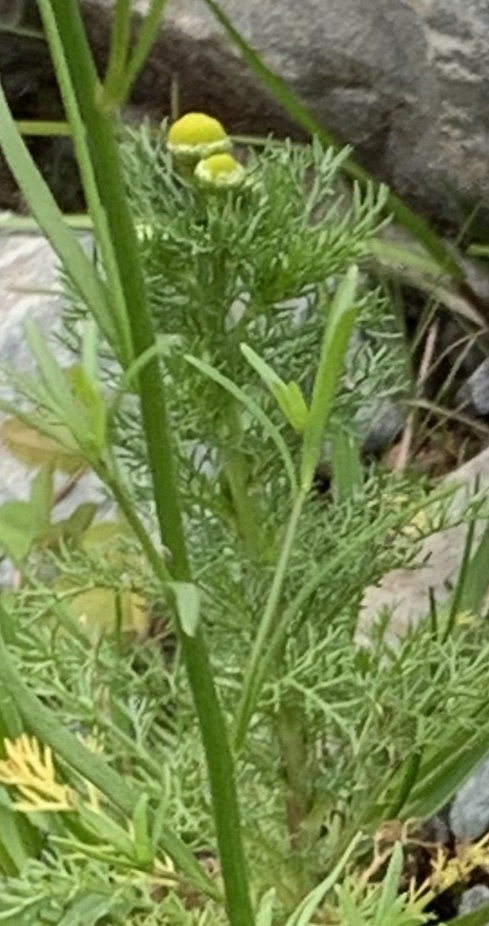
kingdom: Plantae
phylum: Tracheophyta
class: Magnoliopsida
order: Asterales
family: Asteraceae
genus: Matricaria
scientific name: Matricaria discoidea
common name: Disc mayweed
